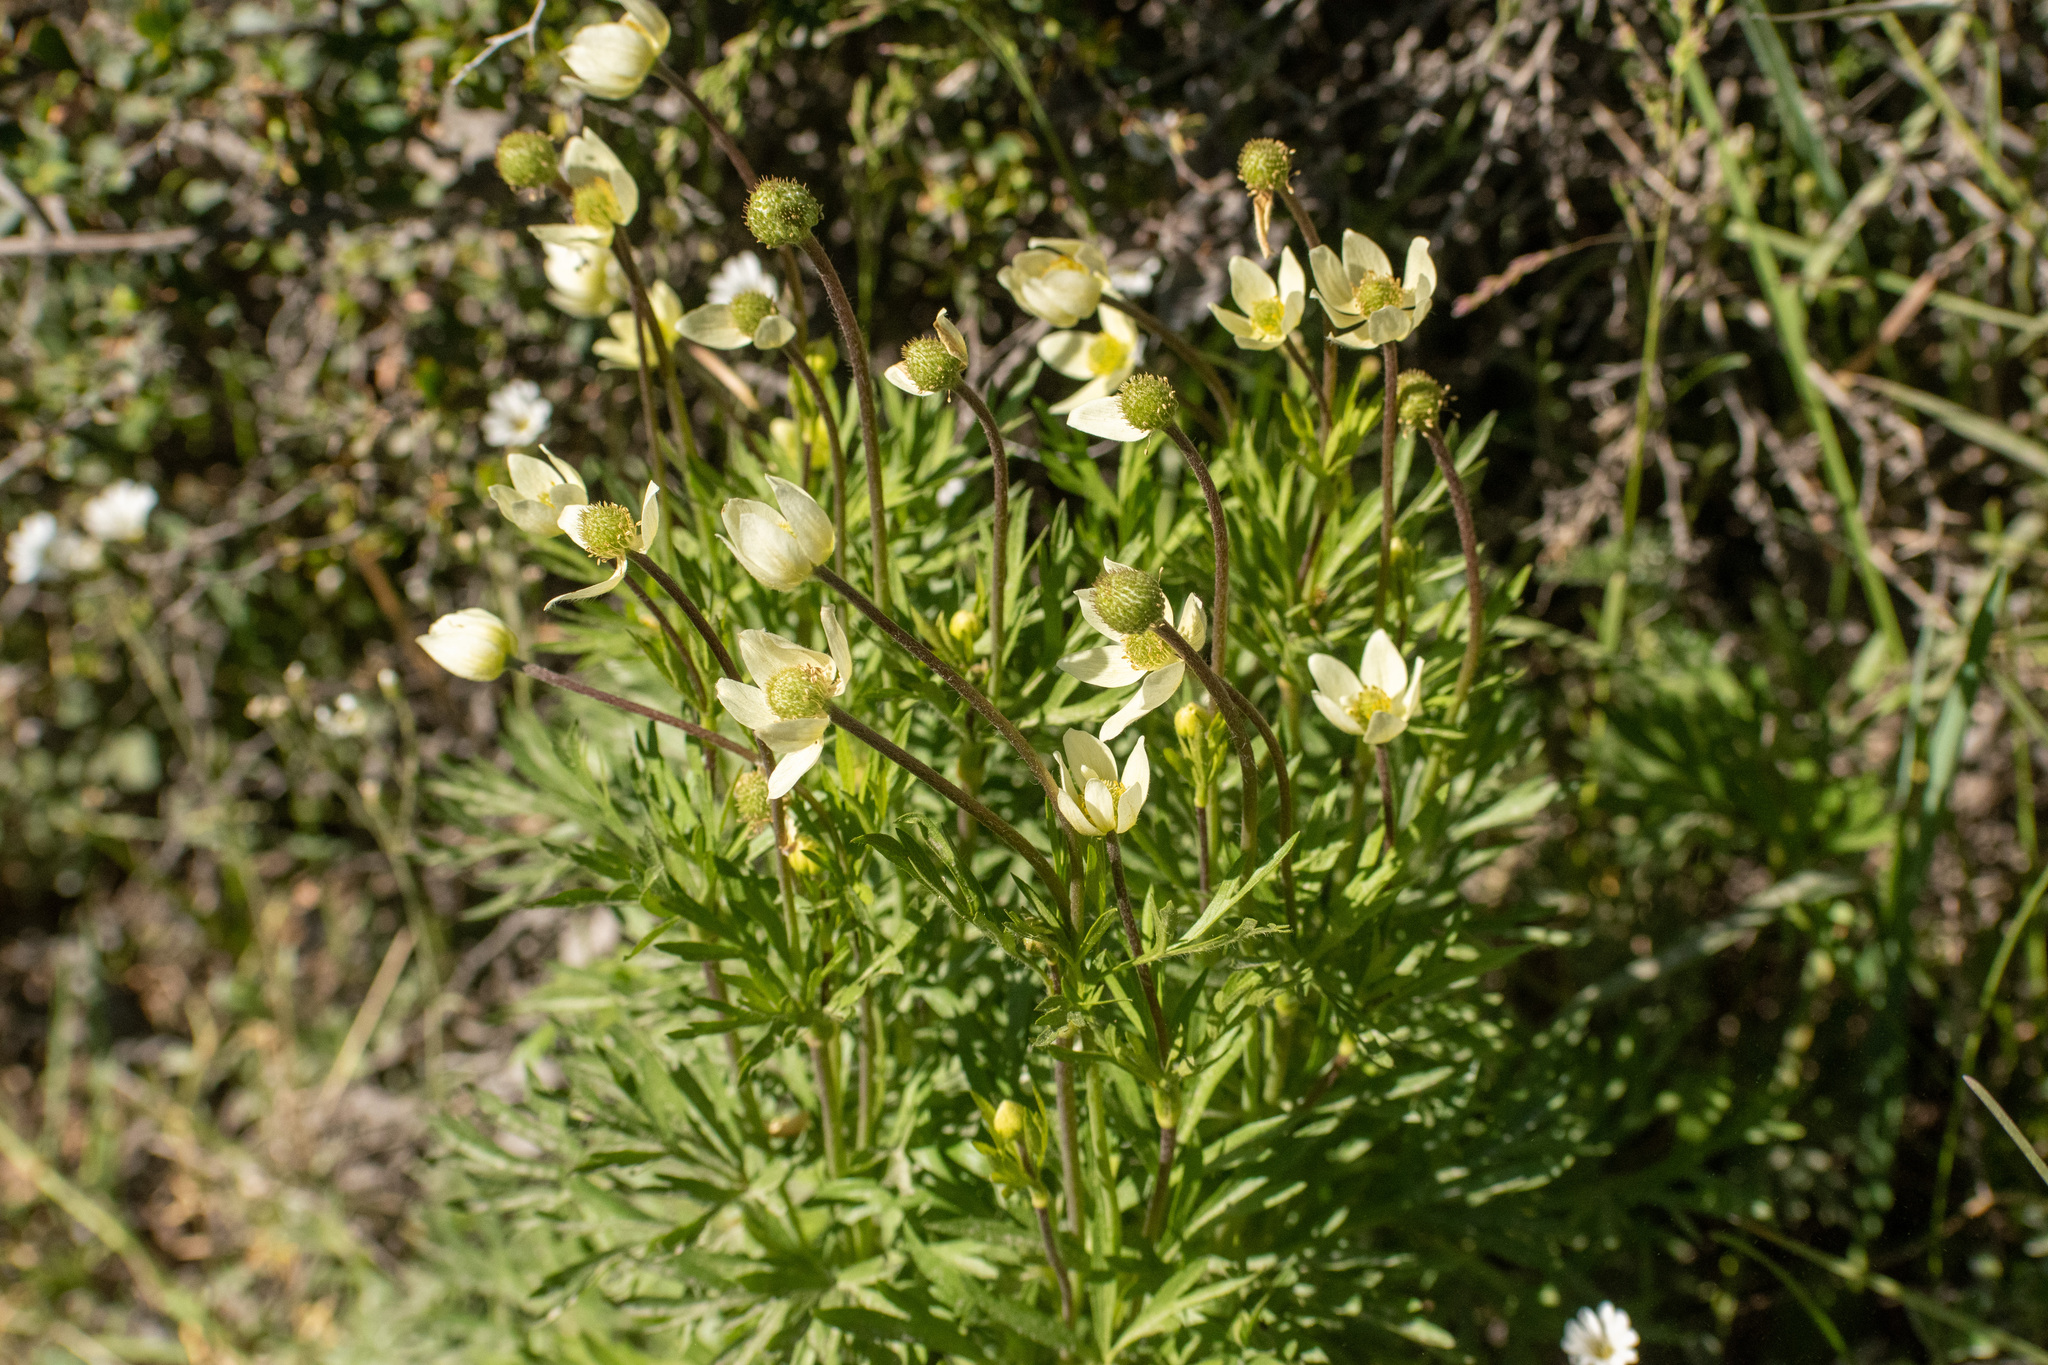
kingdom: Plantae
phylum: Tracheophyta
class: Magnoliopsida
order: Ranunculales
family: Ranunculaceae
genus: Anemone
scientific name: Anemone multifida
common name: Bird's-foot anemone
